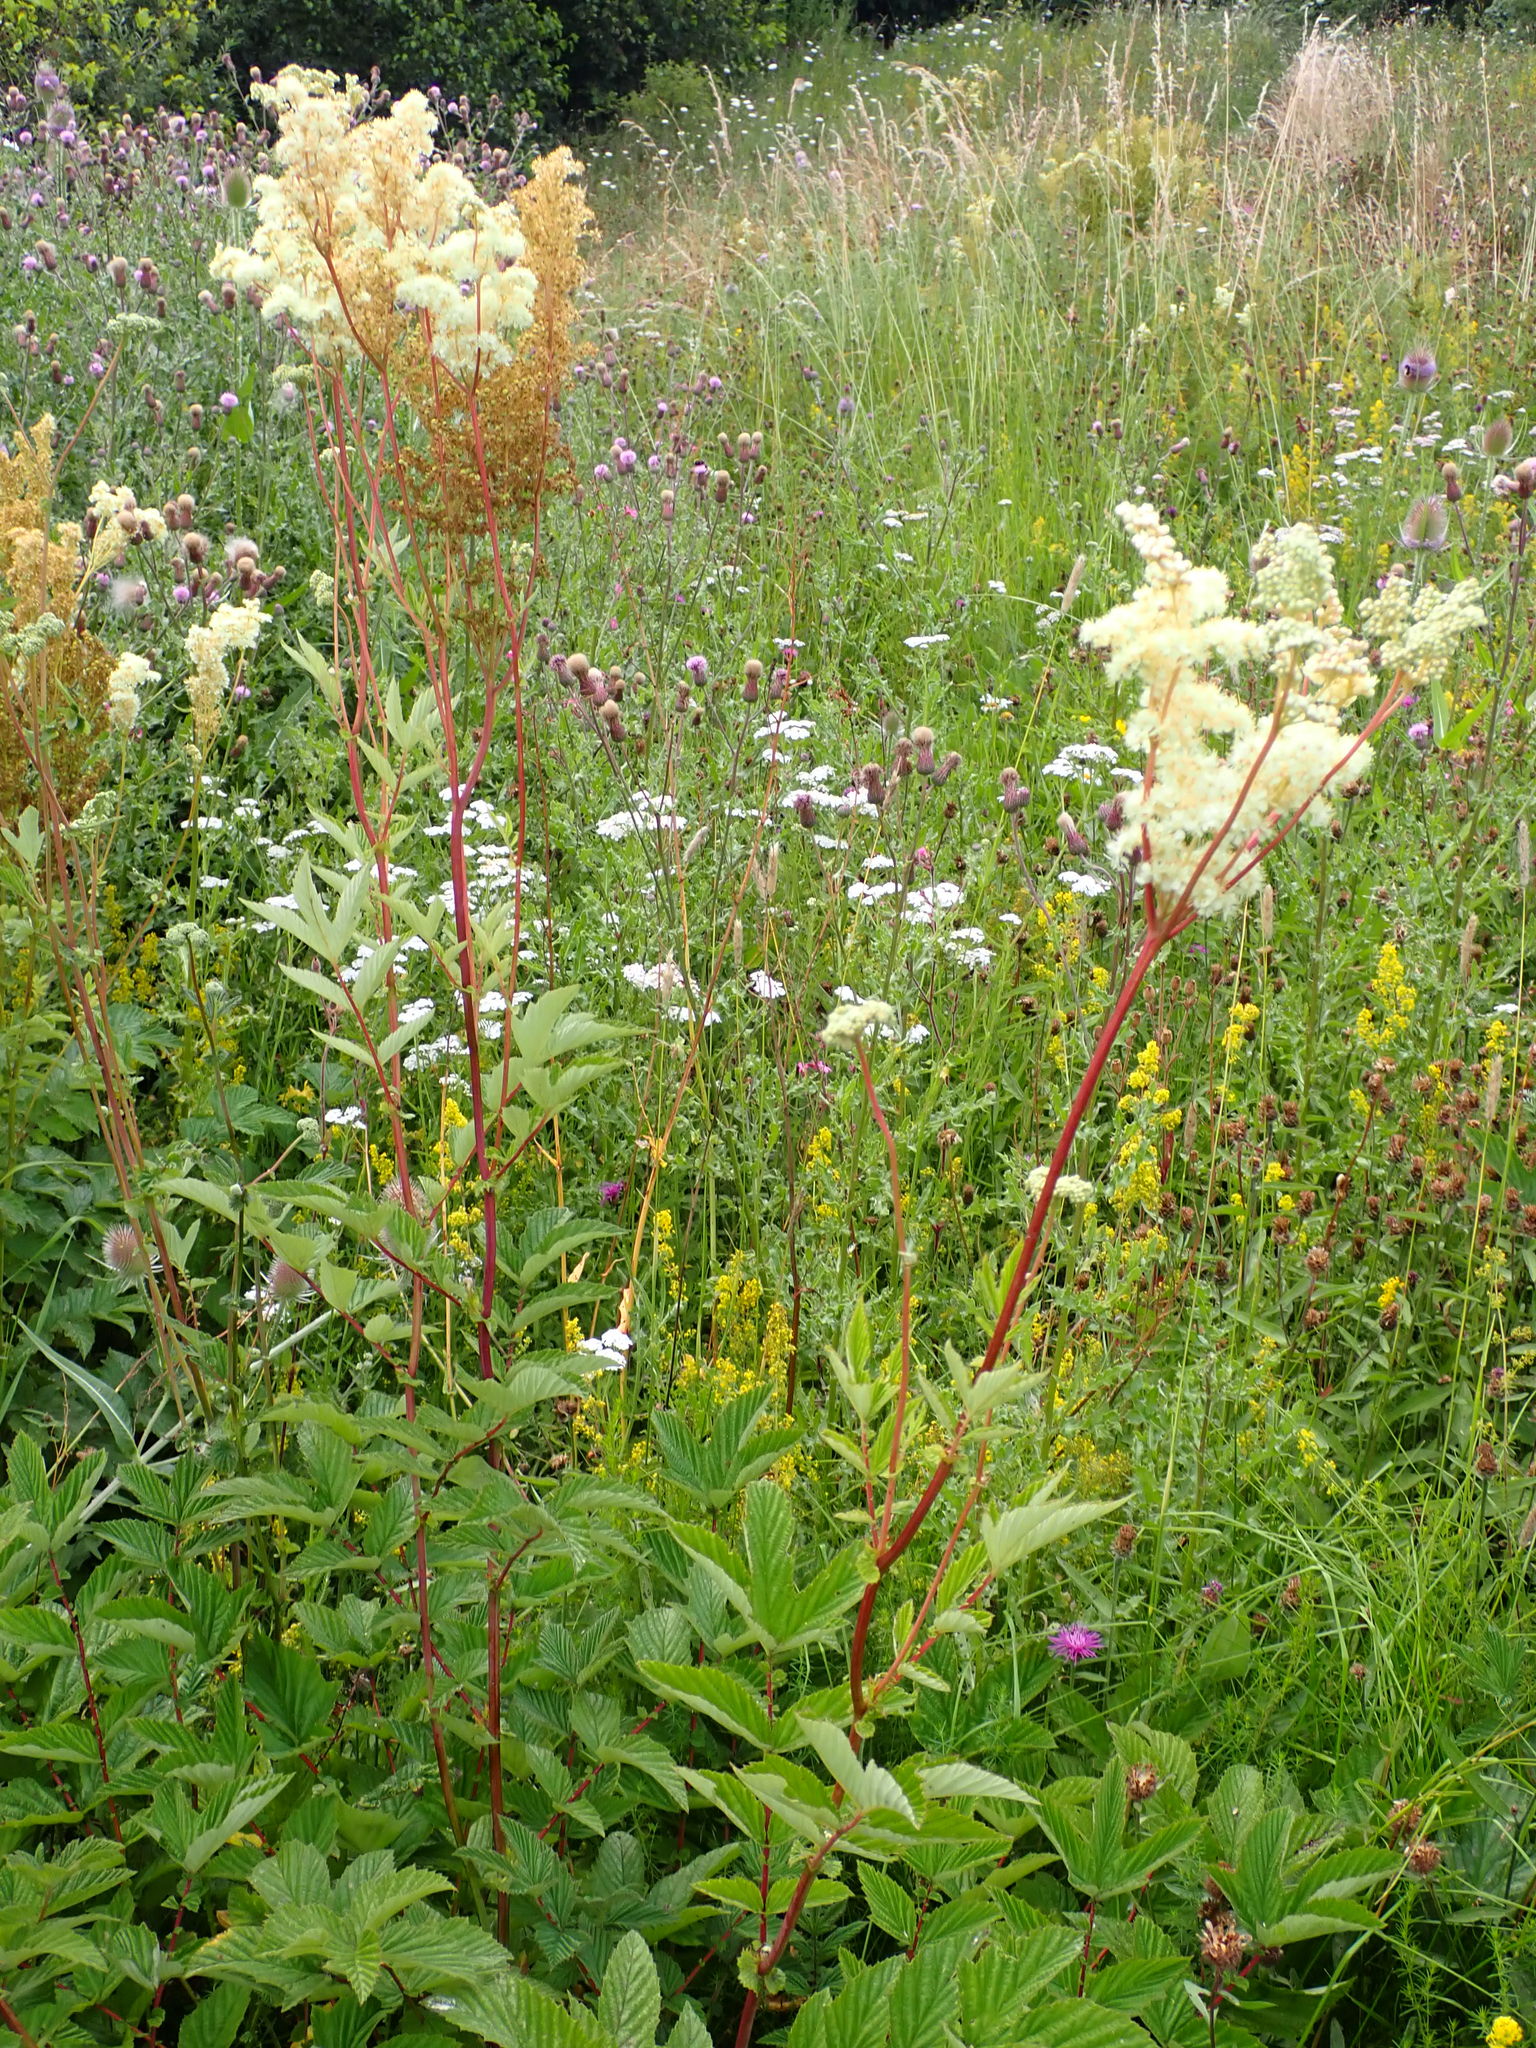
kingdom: Plantae
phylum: Tracheophyta
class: Magnoliopsida
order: Rosales
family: Rosaceae
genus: Filipendula
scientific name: Filipendula ulmaria
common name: Meadowsweet
